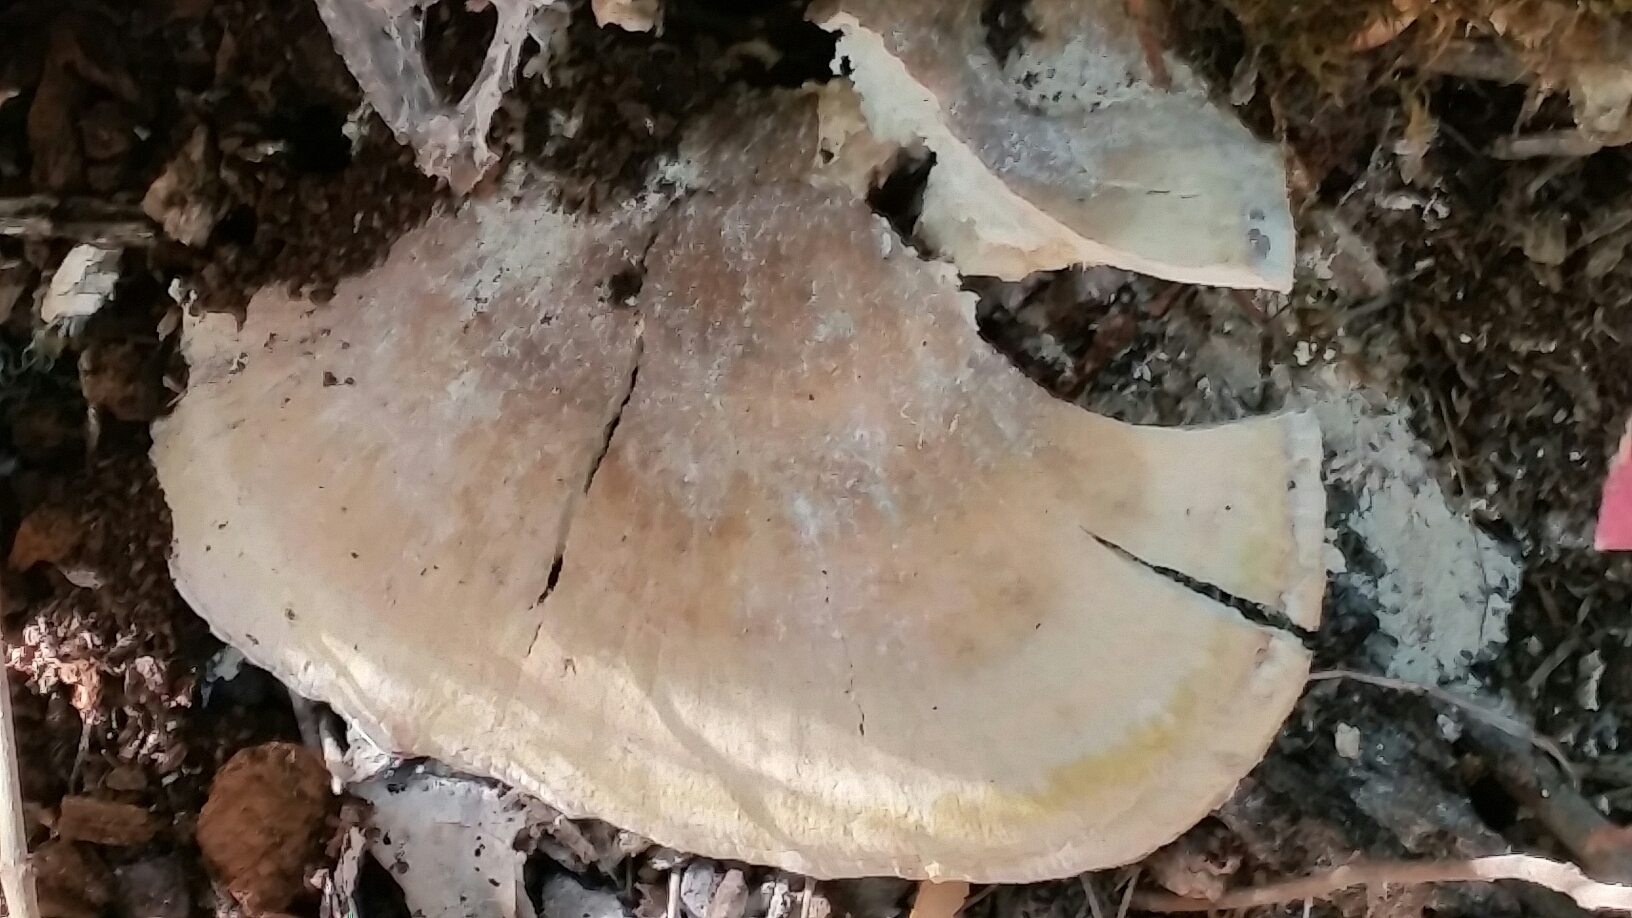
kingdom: Fungi
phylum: Basidiomycota
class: Agaricomycetes
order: Polyporales
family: Laetiporaceae
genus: Laetiporus
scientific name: Laetiporus gilbertsonii
